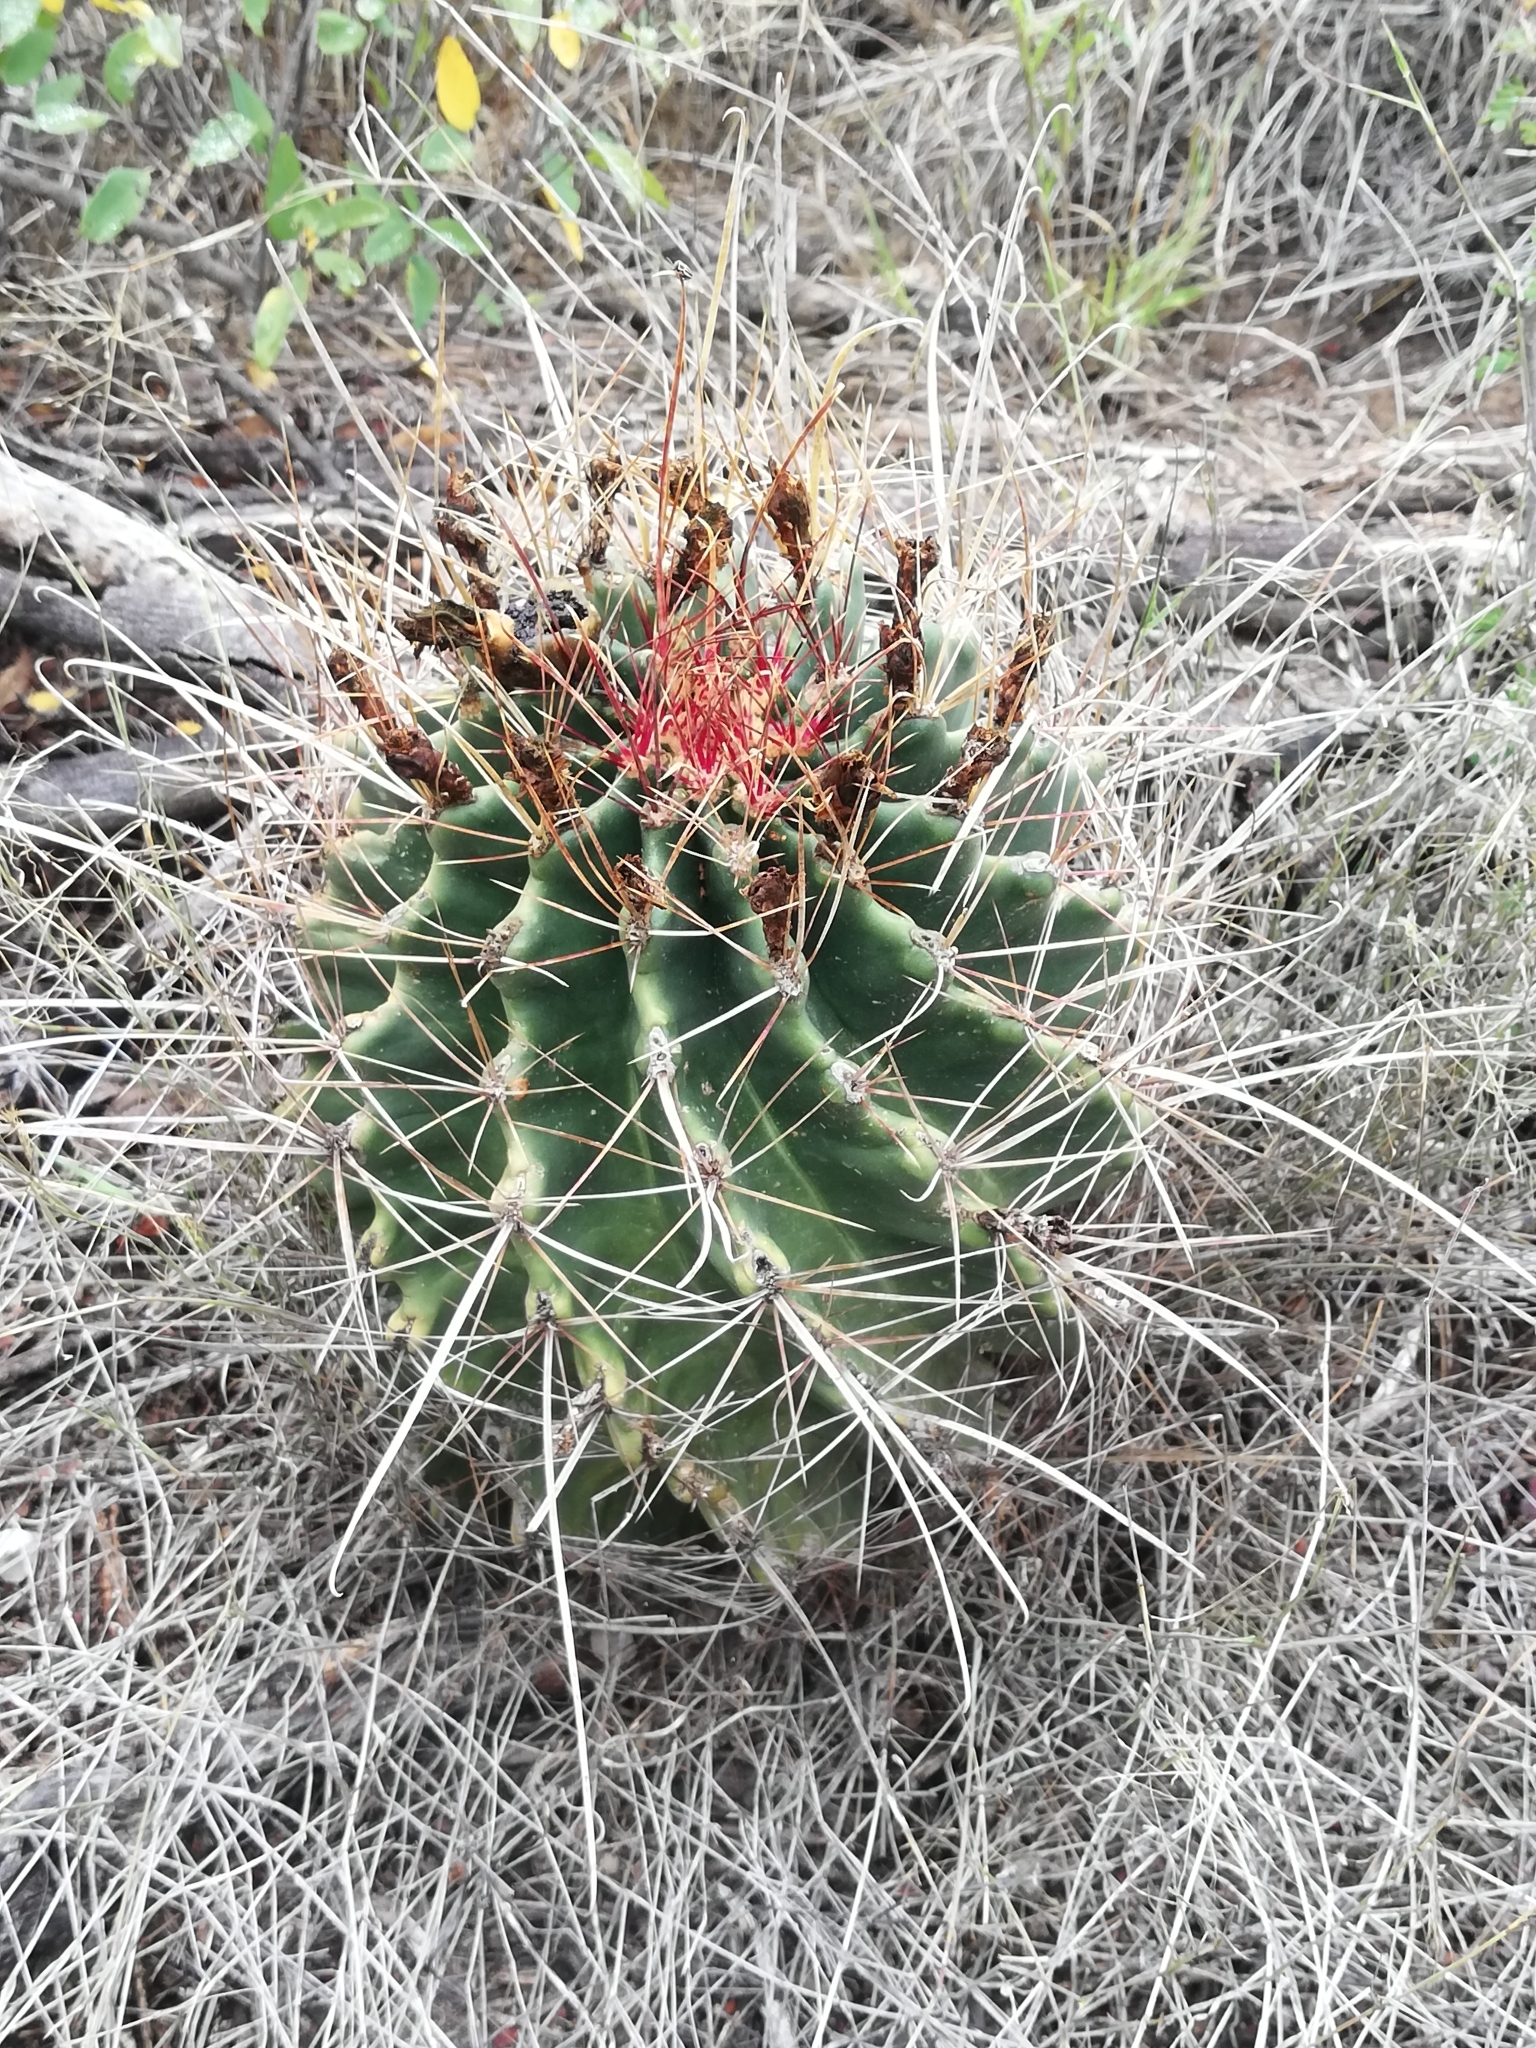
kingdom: Plantae
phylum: Tracheophyta
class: Magnoliopsida
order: Caryophyllales
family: Cactaceae
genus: Bisnaga
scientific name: Bisnaga hamatacantha
